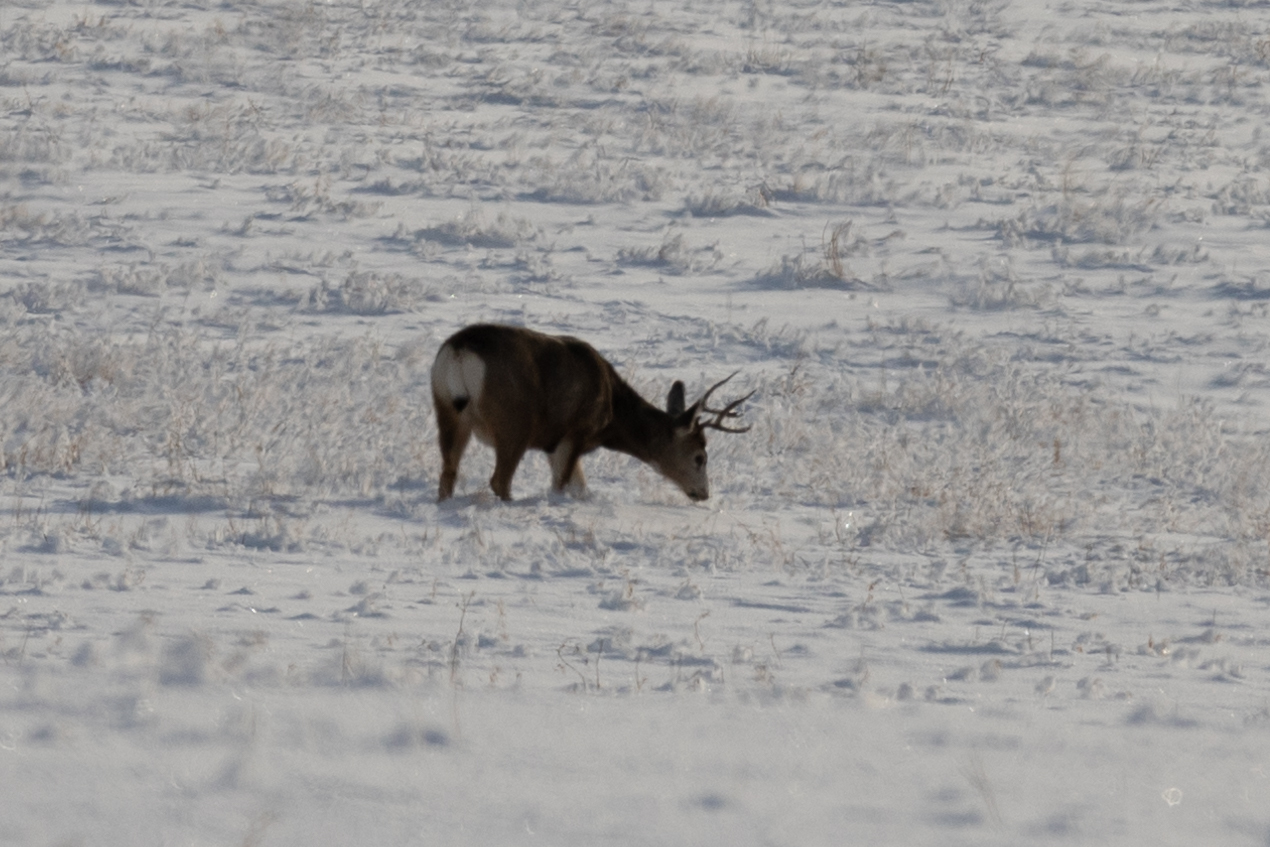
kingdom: Animalia
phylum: Chordata
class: Mammalia
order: Artiodactyla
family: Cervidae
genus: Odocoileus
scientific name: Odocoileus hemionus
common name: Mule deer
